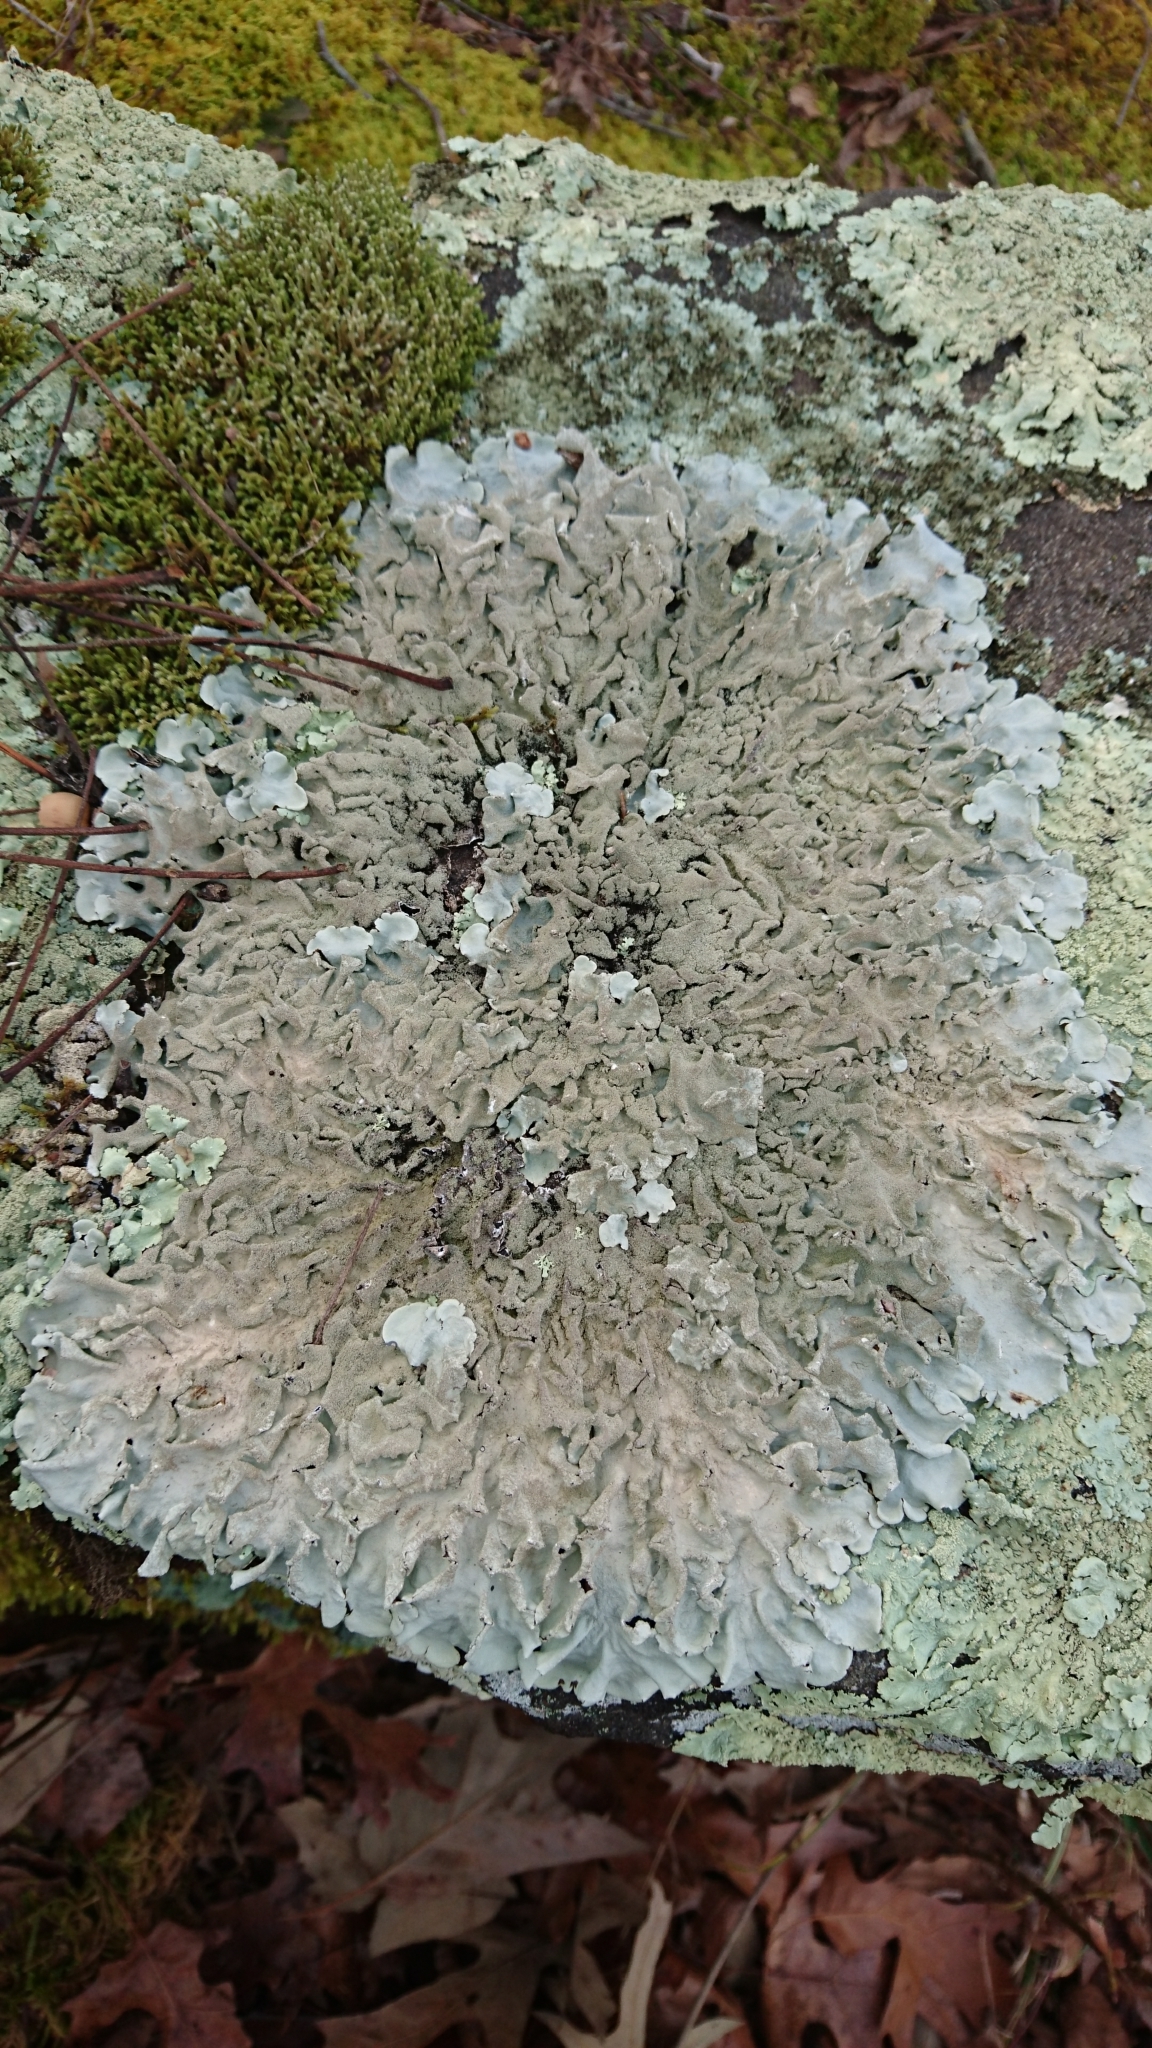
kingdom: Fungi
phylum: Ascomycota
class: Lecanoromycetes
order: Lecanorales
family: Parmeliaceae
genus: Parmotrema
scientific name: Parmotrema tinctorum
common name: Old gray ruffles
